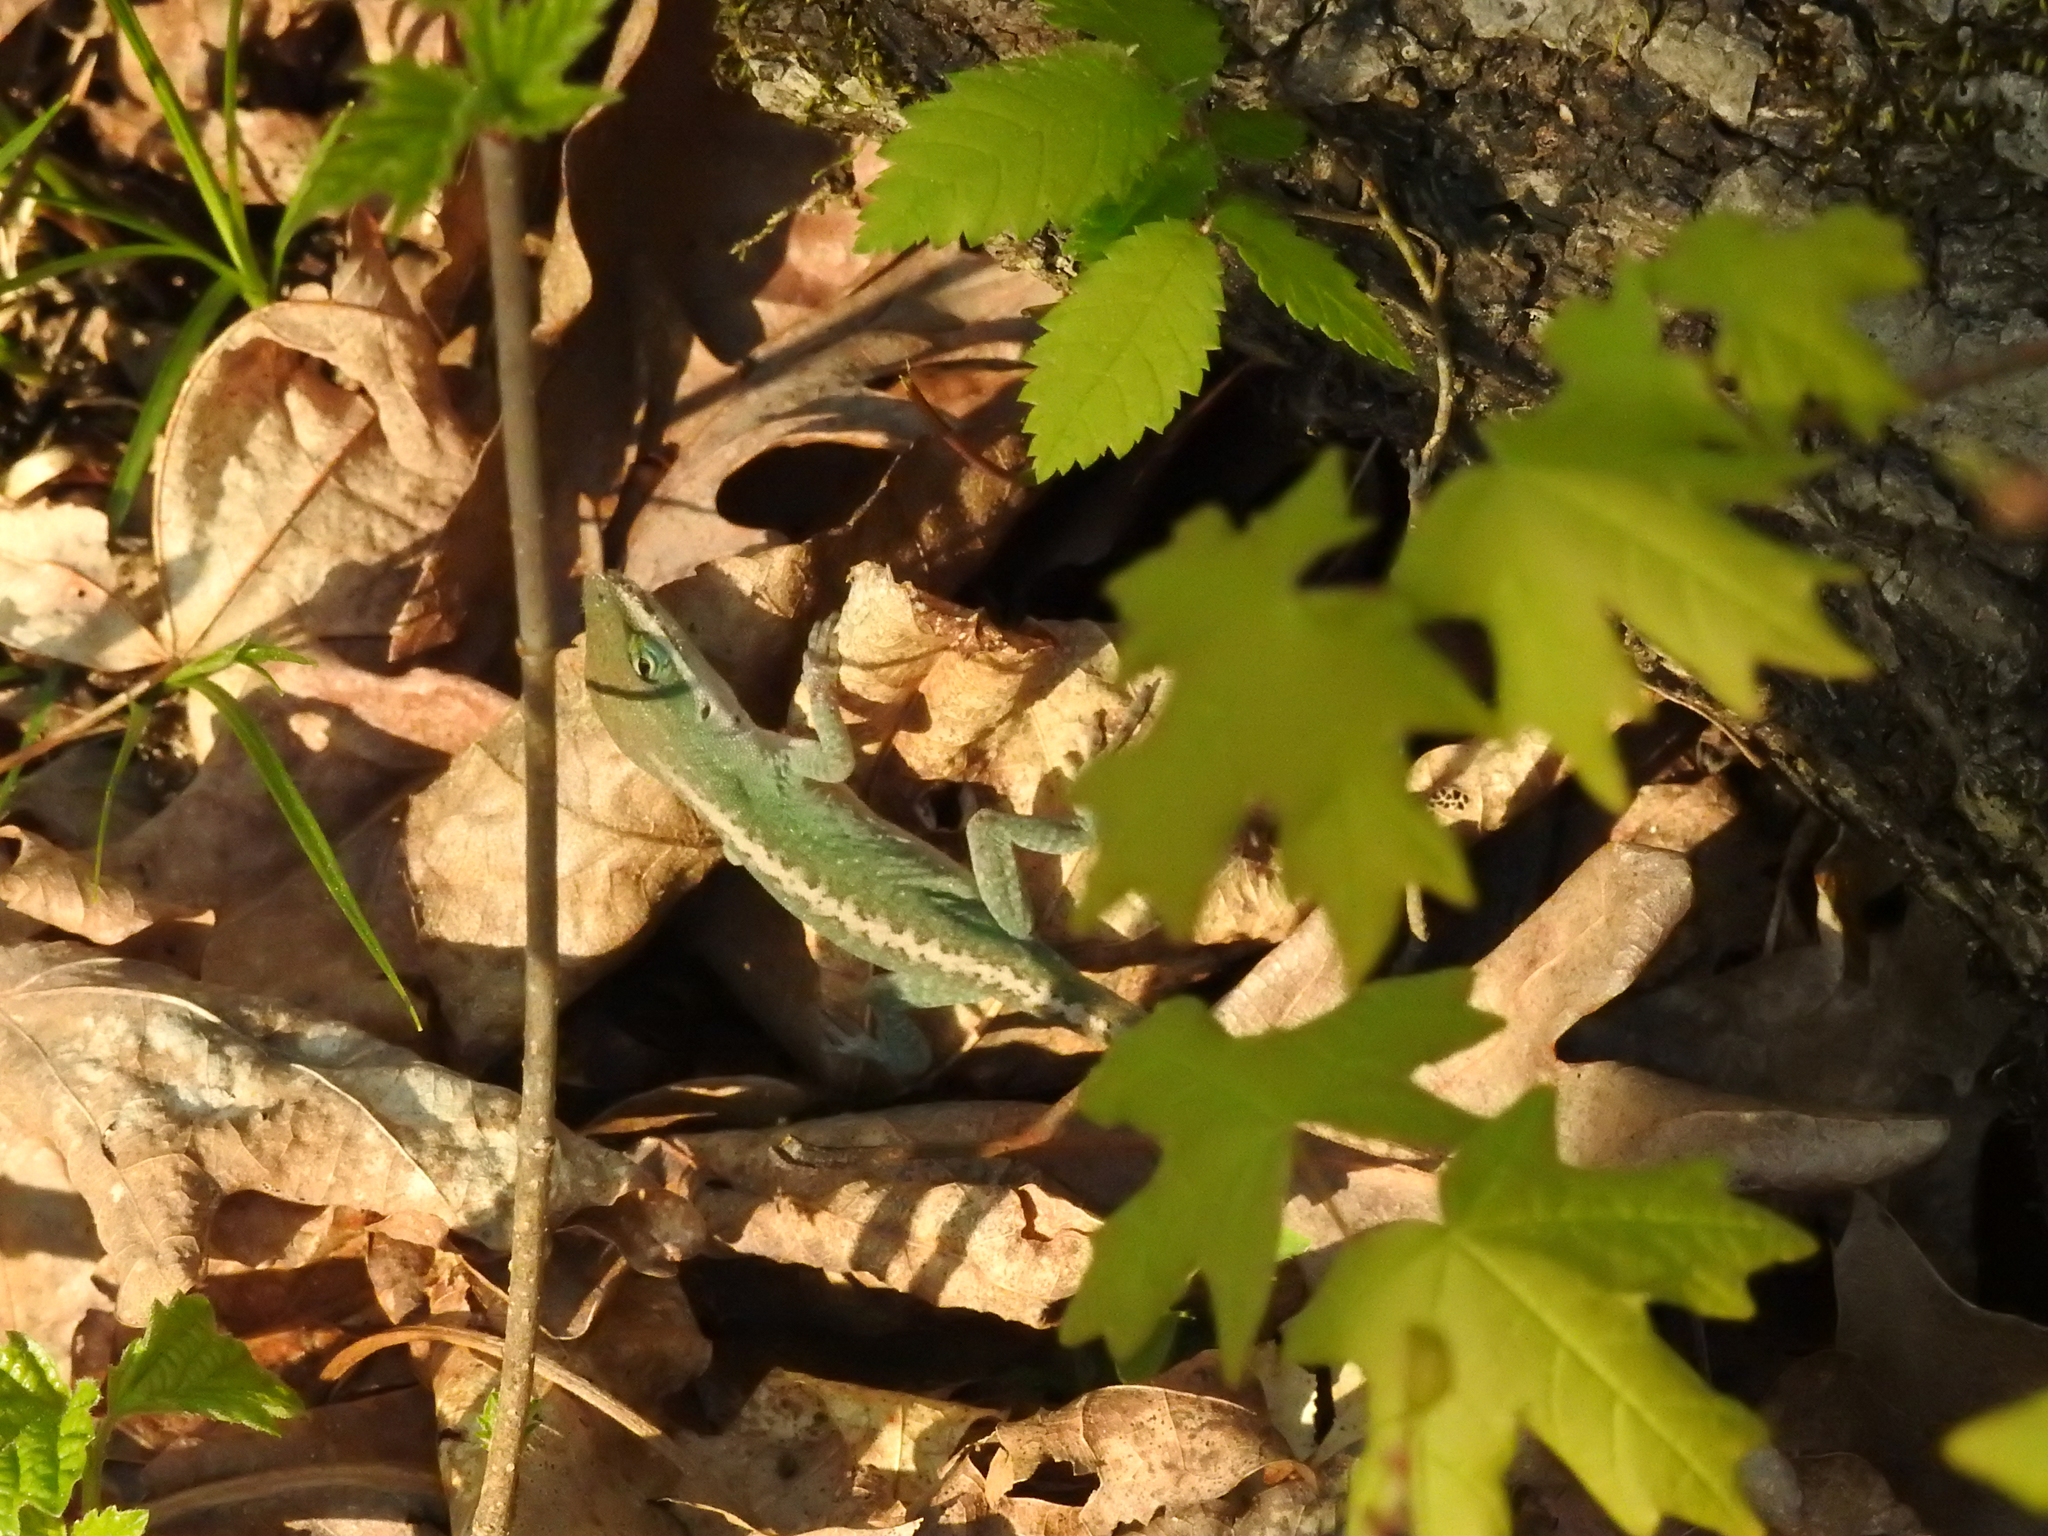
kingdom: Animalia
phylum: Chordata
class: Squamata
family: Dactyloidae
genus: Anolis
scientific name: Anolis carolinensis
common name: Green anole
